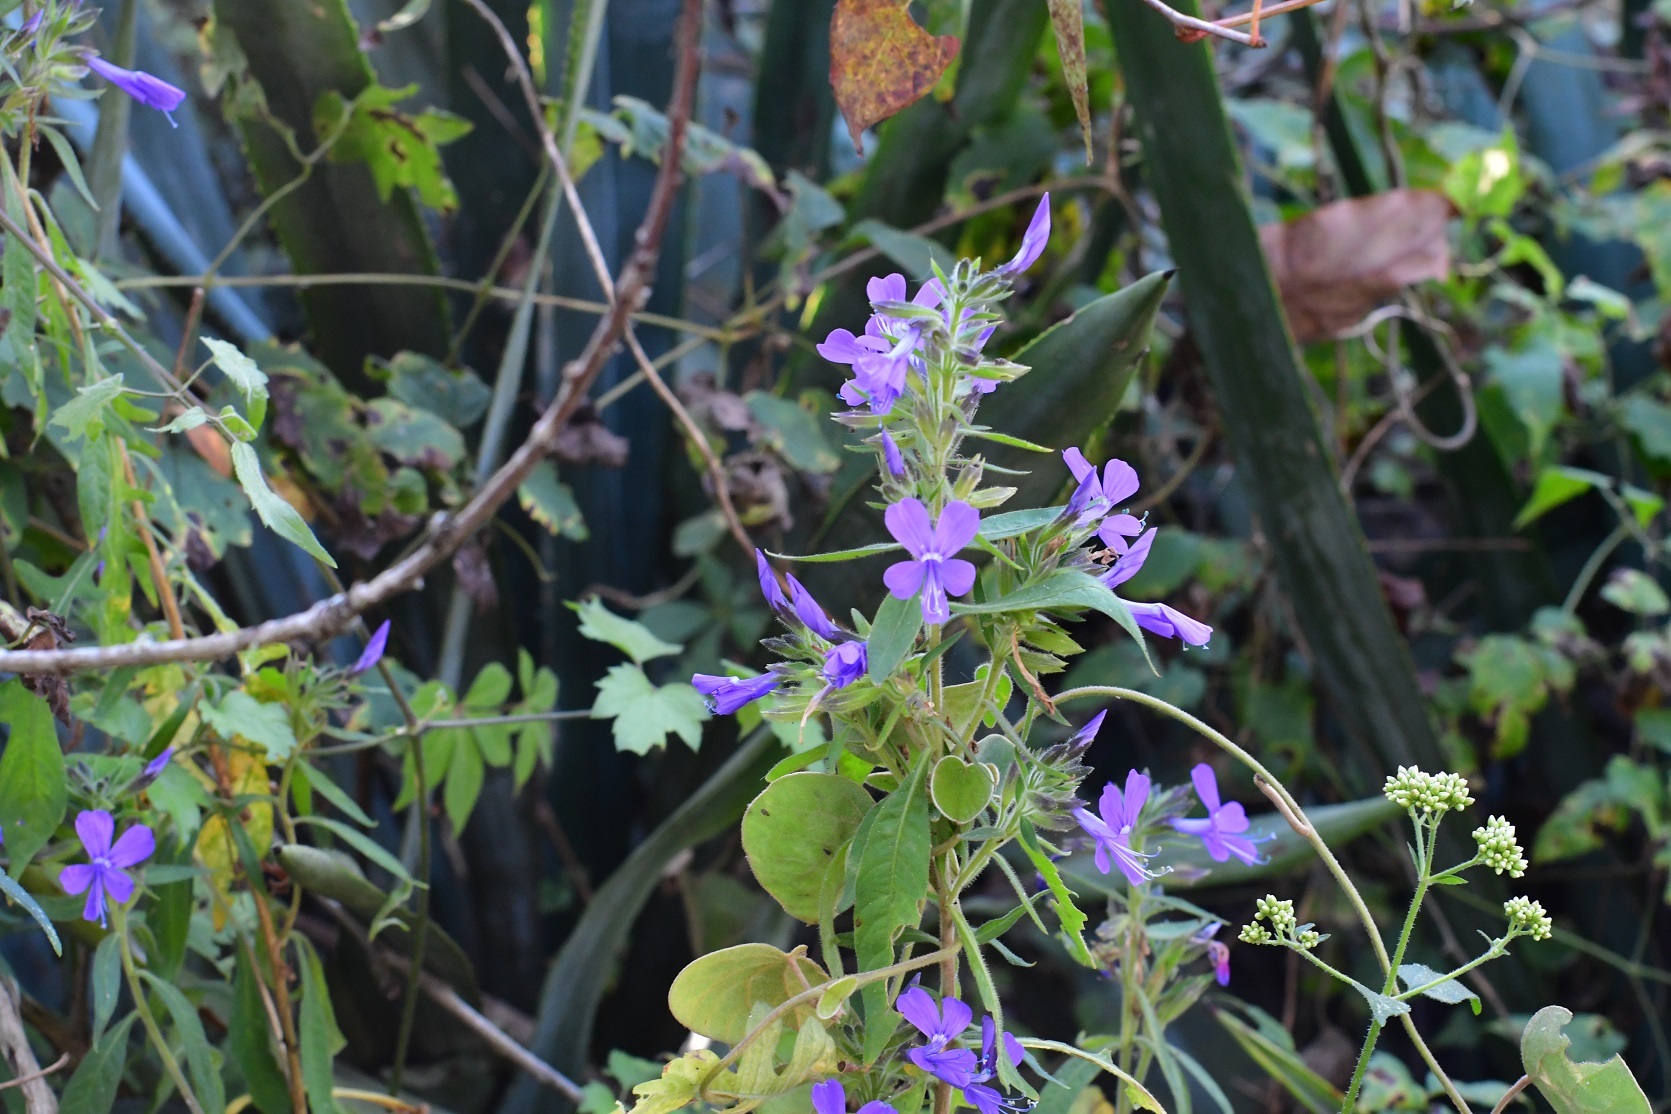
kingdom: Plantae
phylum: Tracheophyta
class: Magnoliopsida
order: Ericales
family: Polemoniaceae
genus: Bonplandia
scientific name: Bonplandia geminiflora
